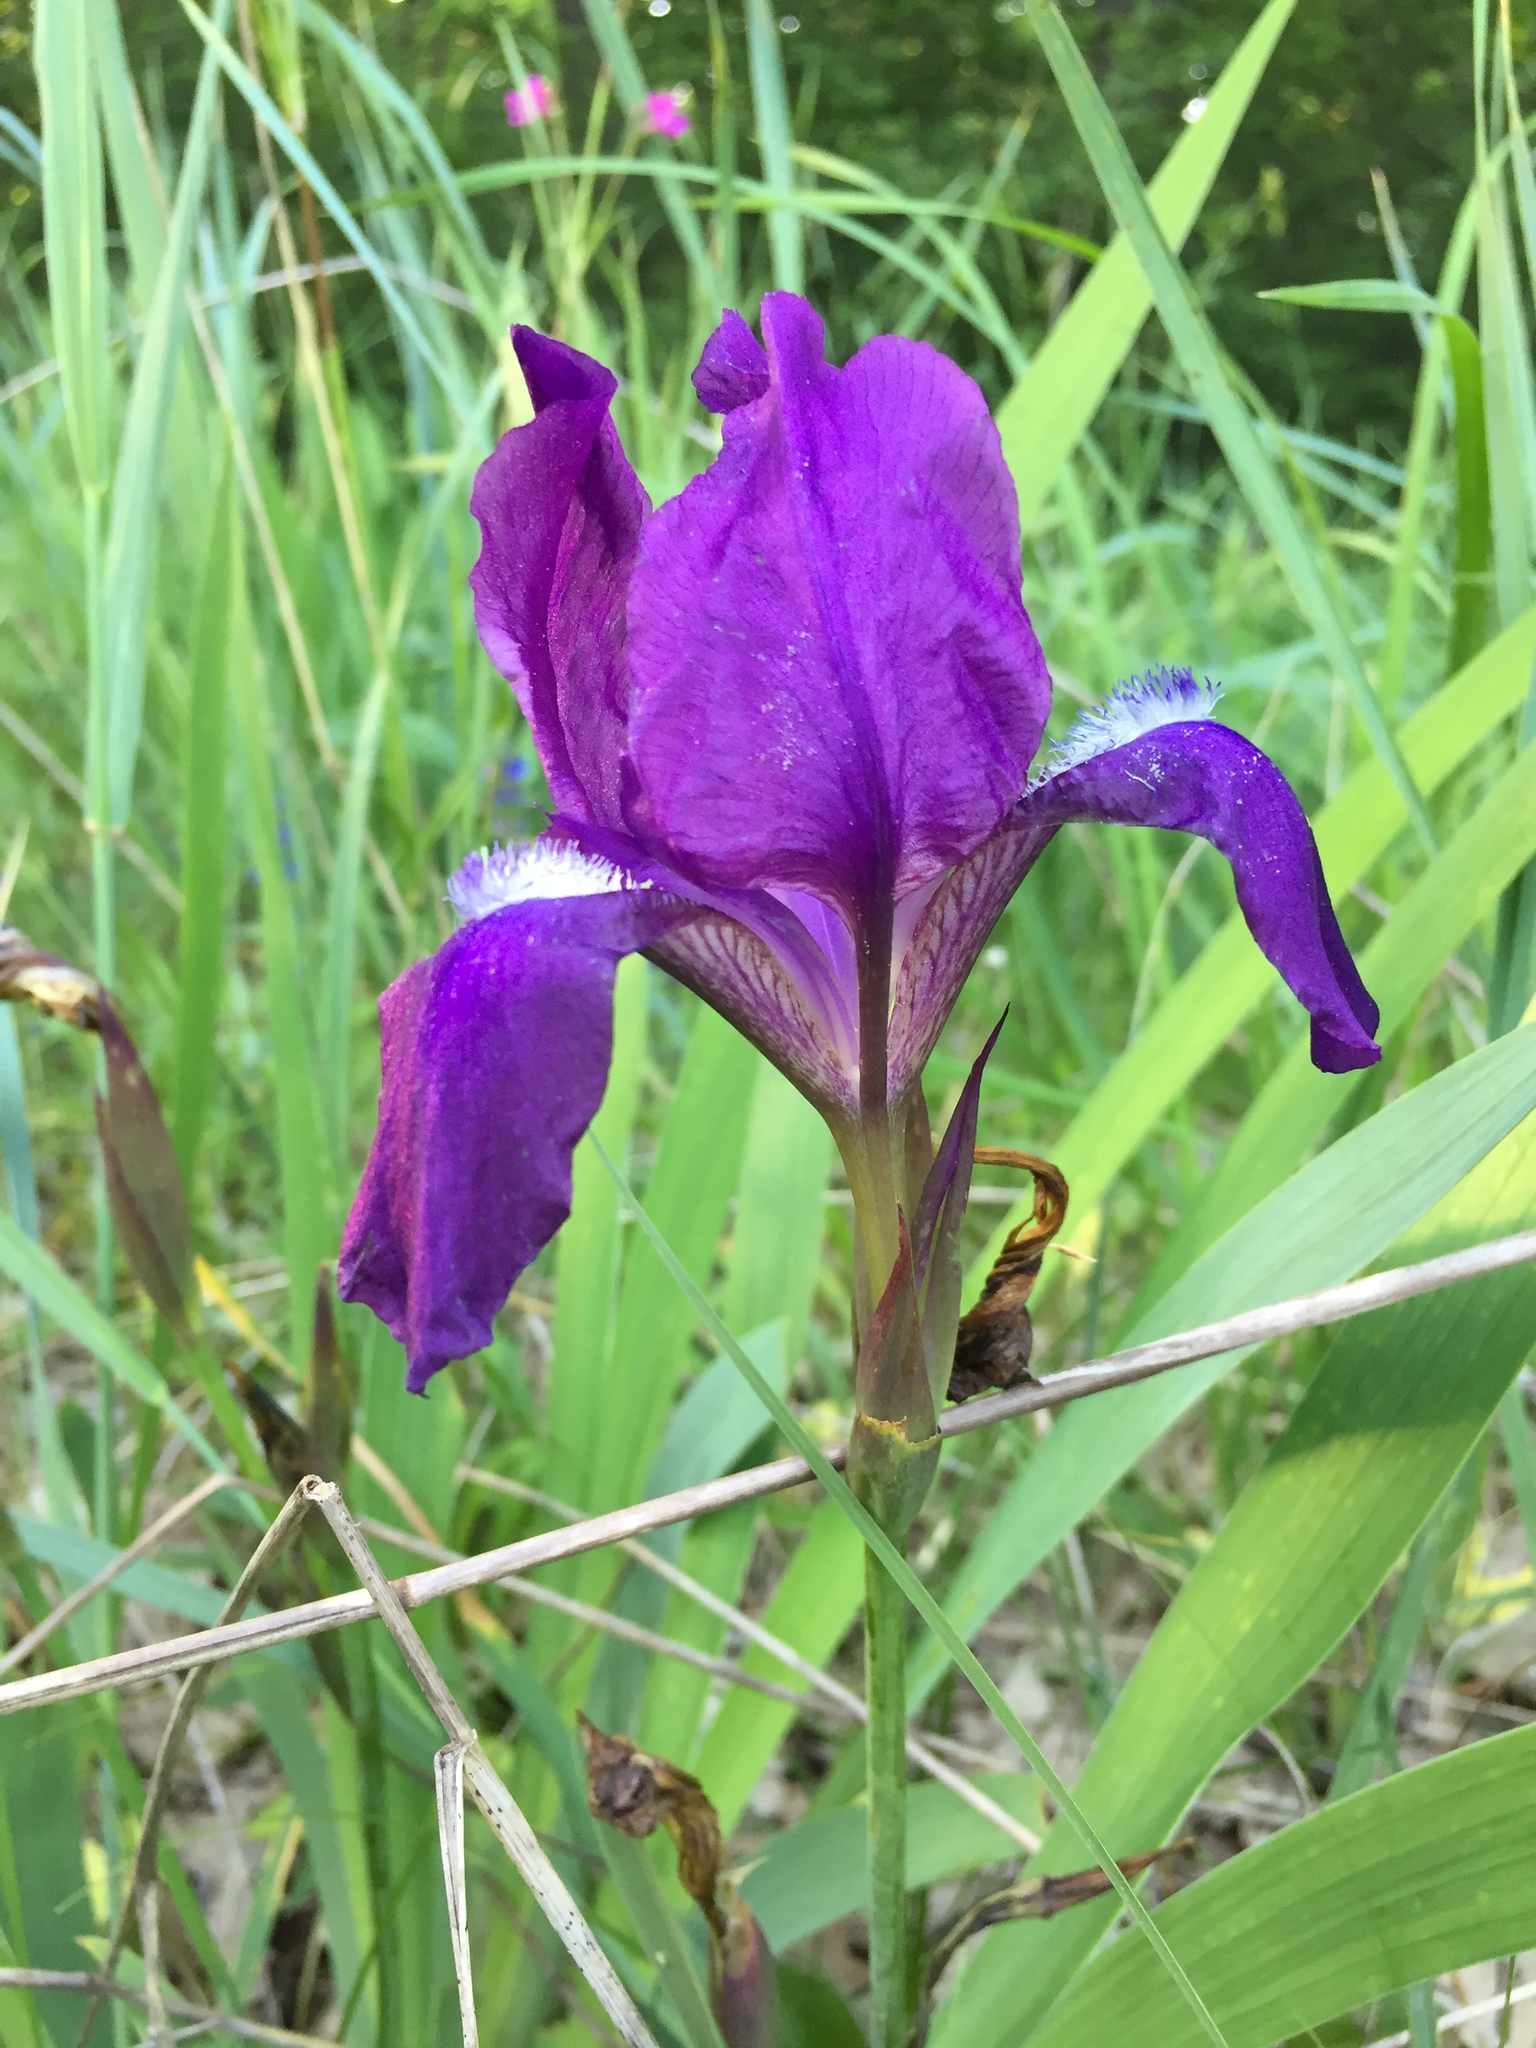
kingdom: Plantae
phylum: Tracheophyta
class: Liliopsida
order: Asparagales
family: Iridaceae
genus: Iris
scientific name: Iris aphylla
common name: Stool iris
